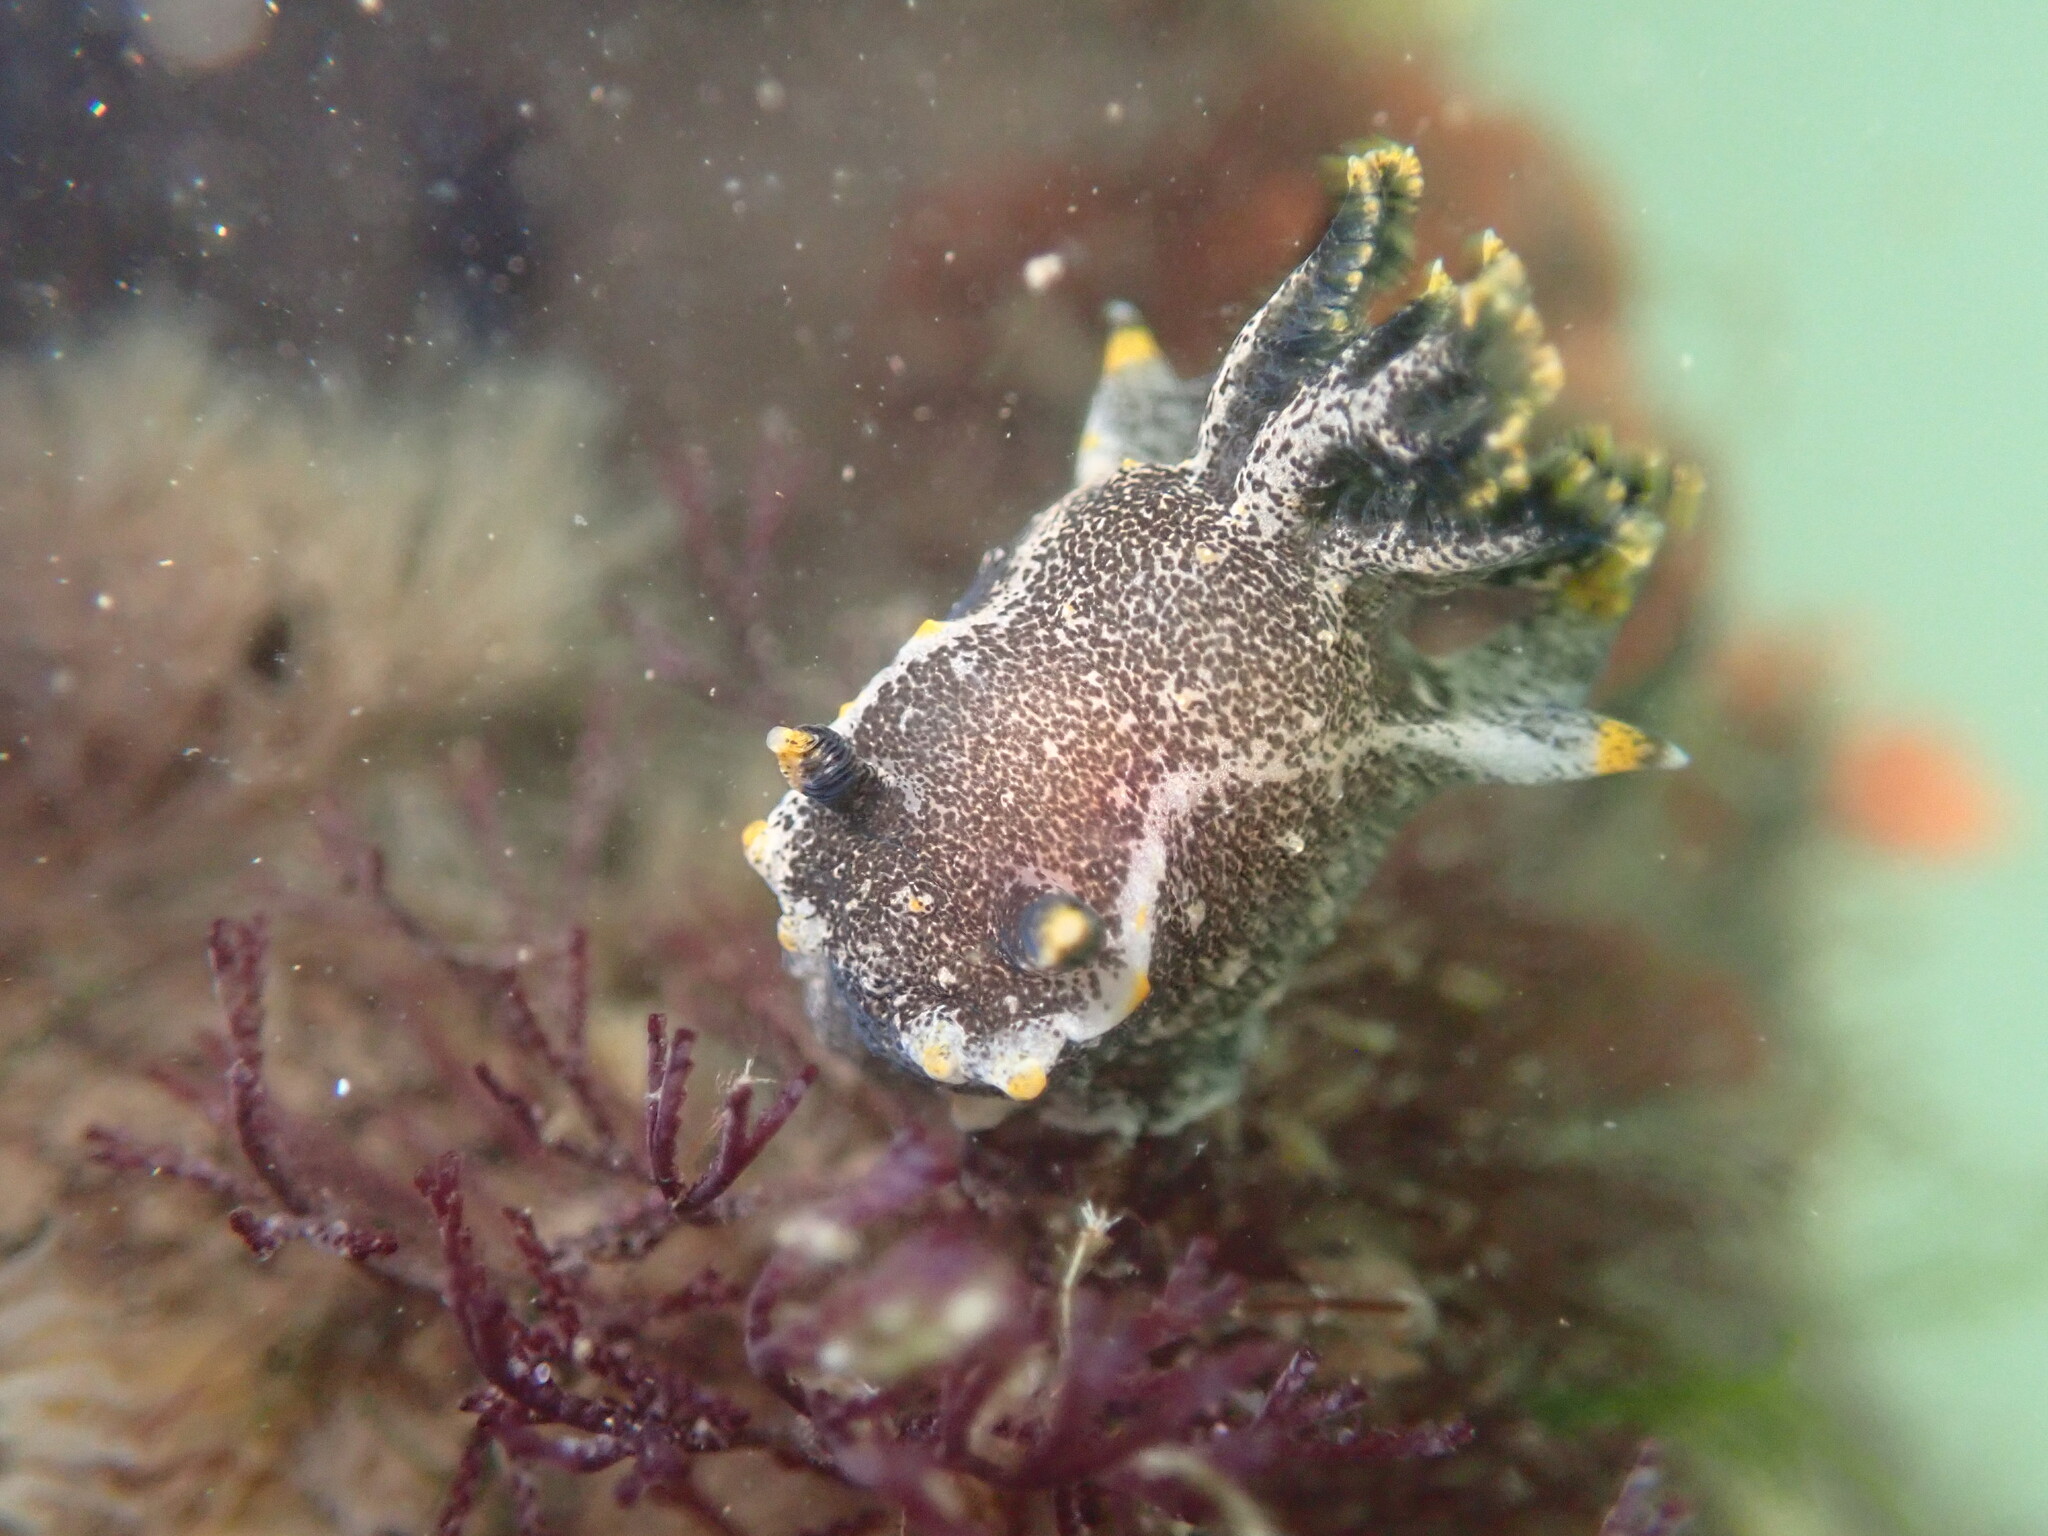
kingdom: Animalia
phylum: Mollusca
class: Gastropoda
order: Nudibranchia
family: Polyceridae
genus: Polycera
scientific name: Polycera hedgpethi
